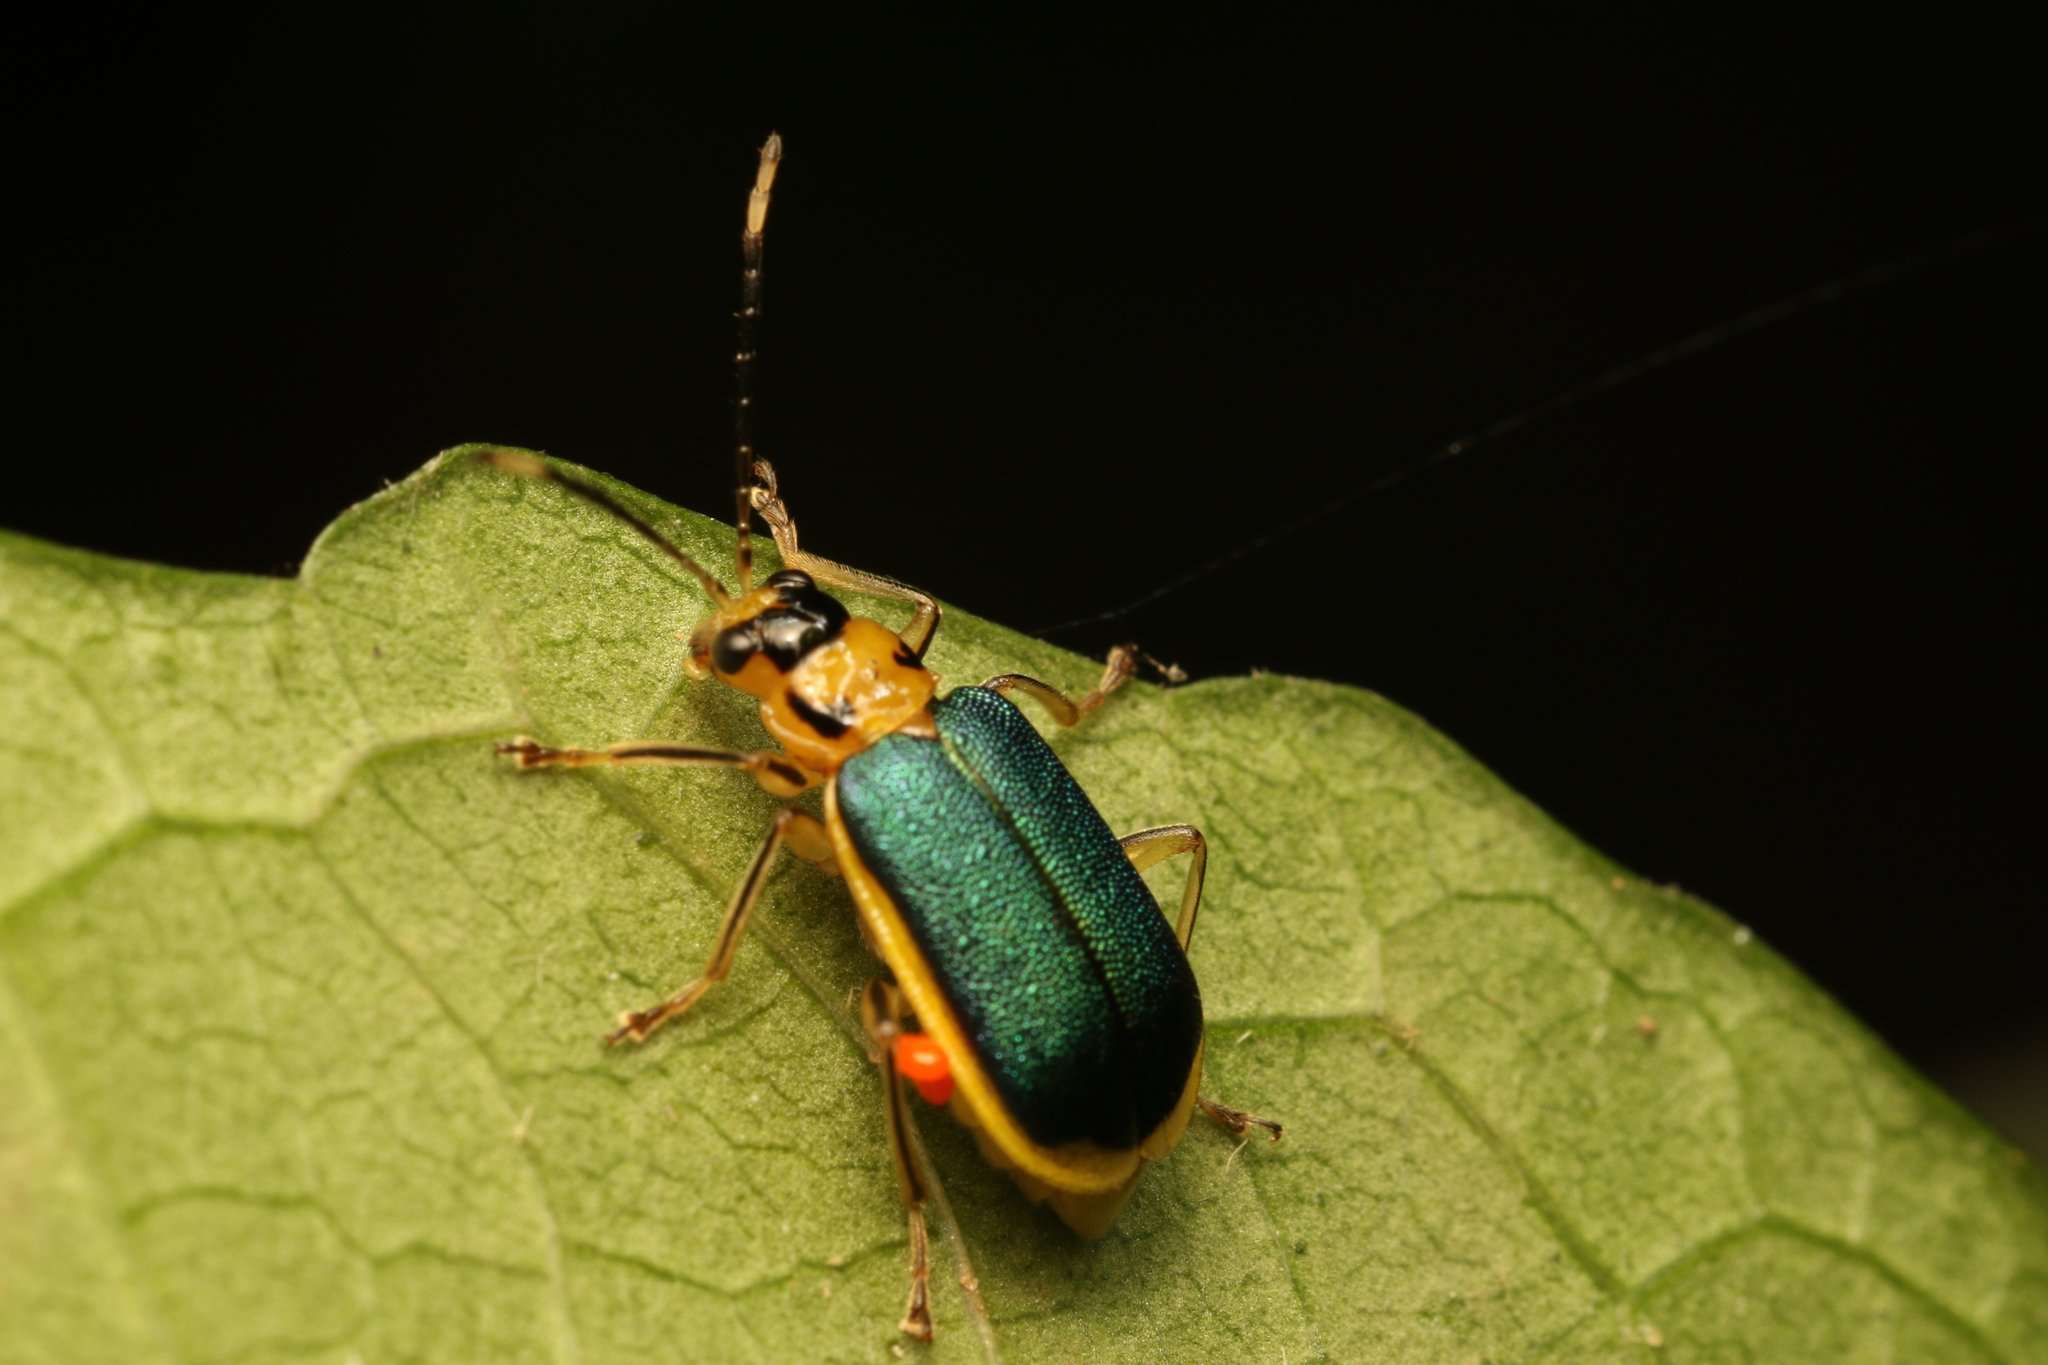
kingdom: Animalia
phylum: Arthropoda
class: Insecta
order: Coleoptera
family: Chrysomelidae
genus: Buckibrotica
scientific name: Buckibrotica
